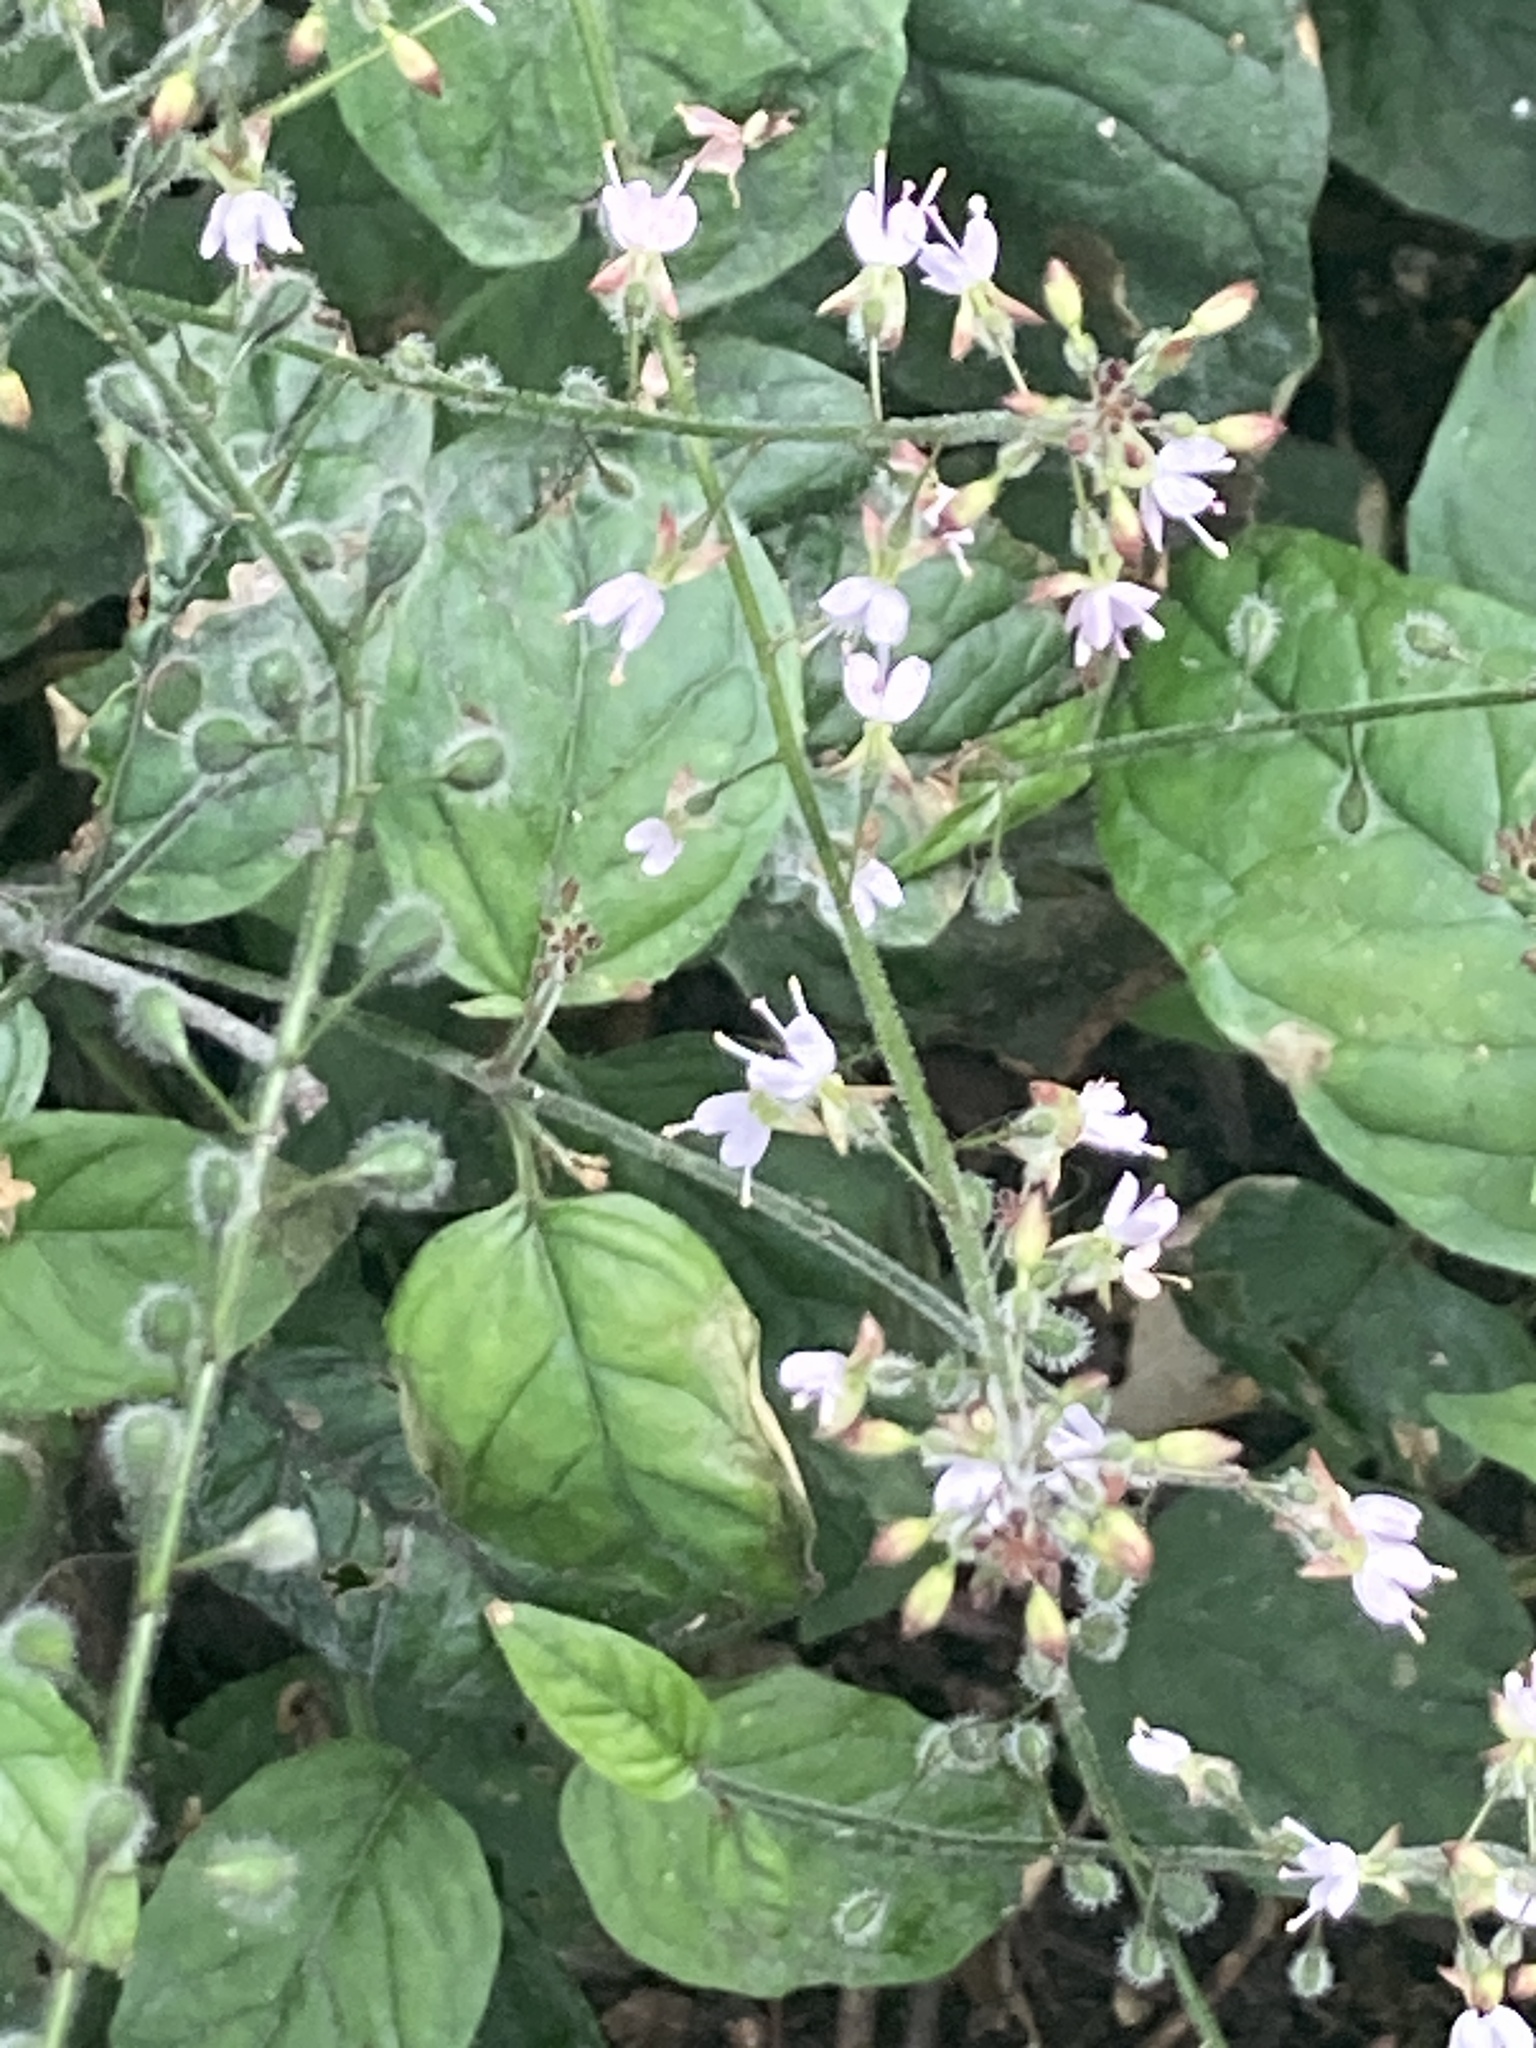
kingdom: Plantae
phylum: Tracheophyta
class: Magnoliopsida
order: Myrtales
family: Onagraceae
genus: Circaea
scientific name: Circaea lutetiana
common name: Enchanter's-nightshade
